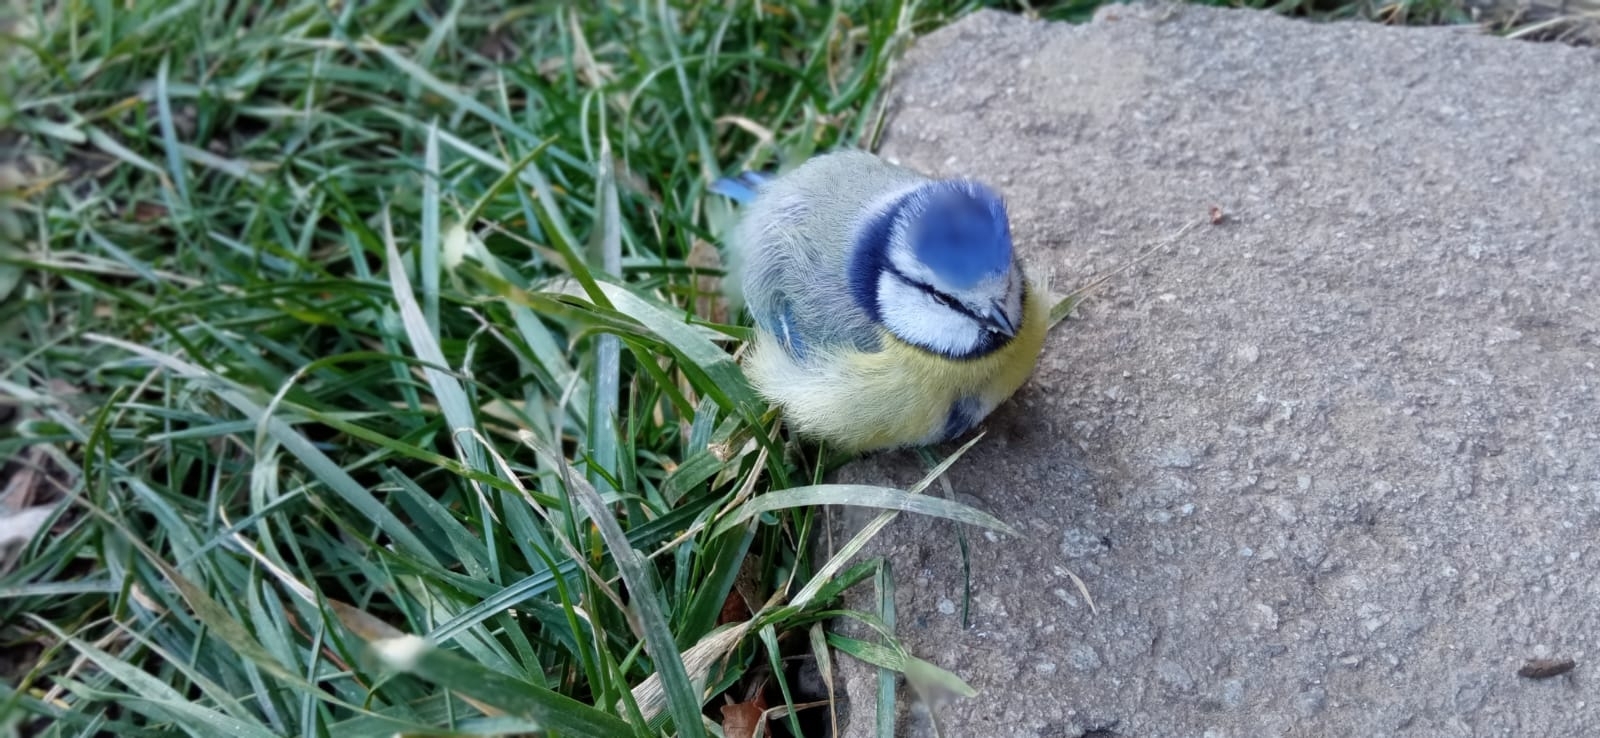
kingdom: Animalia
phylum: Chordata
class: Aves
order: Passeriformes
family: Paridae
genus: Cyanistes
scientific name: Cyanistes caeruleus
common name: Eurasian blue tit
